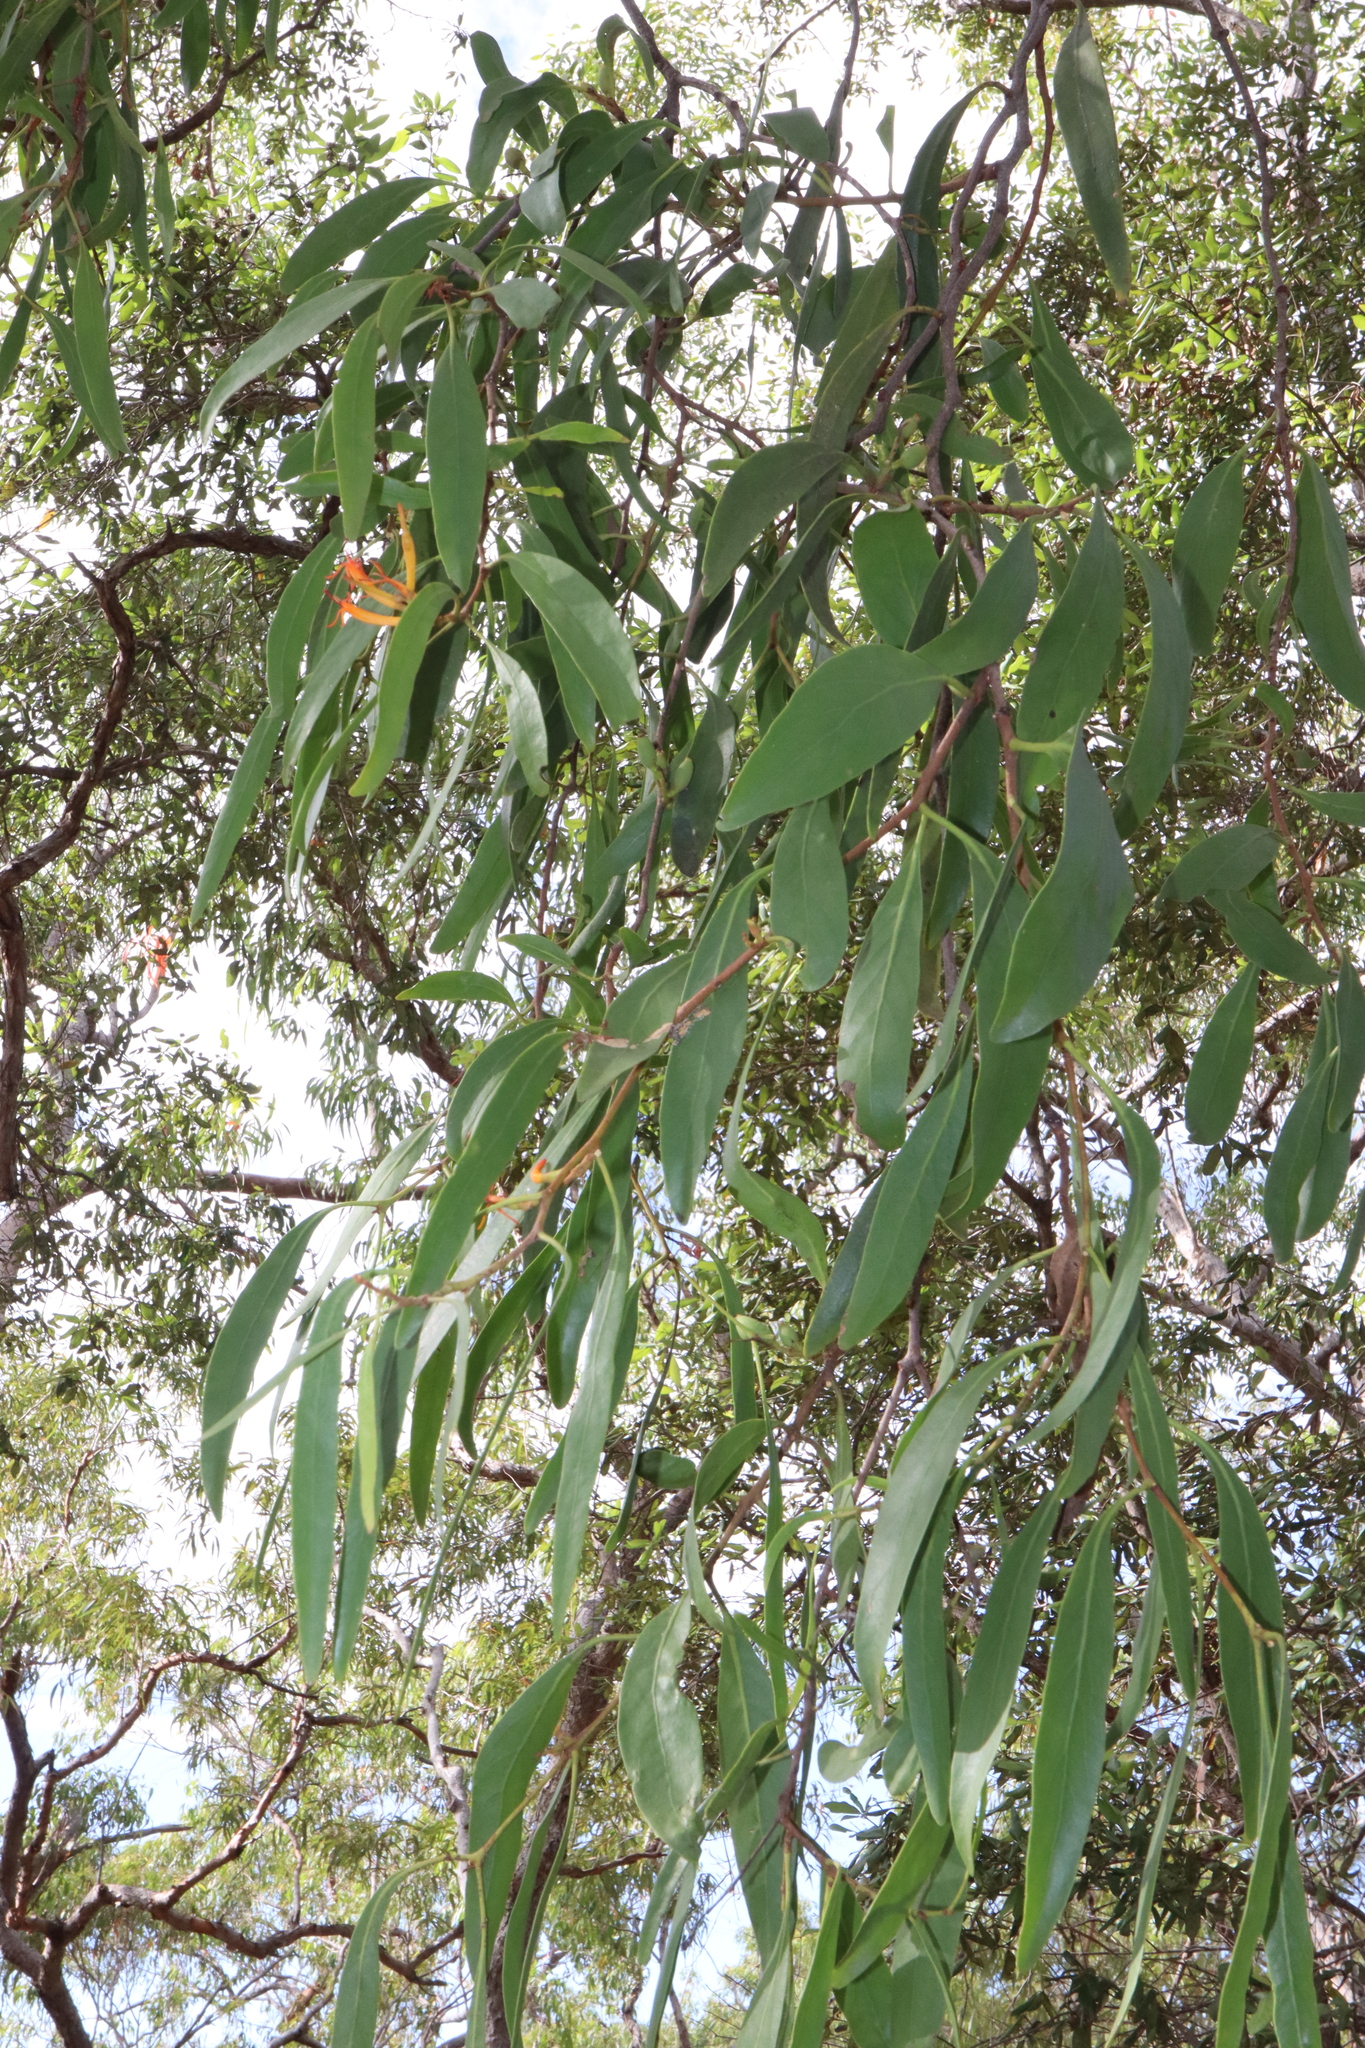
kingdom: Plantae
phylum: Tracheophyta
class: Magnoliopsida
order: Santalales
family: Loranthaceae
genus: Dendrophthoe
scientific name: Dendrophthoe vitellina
